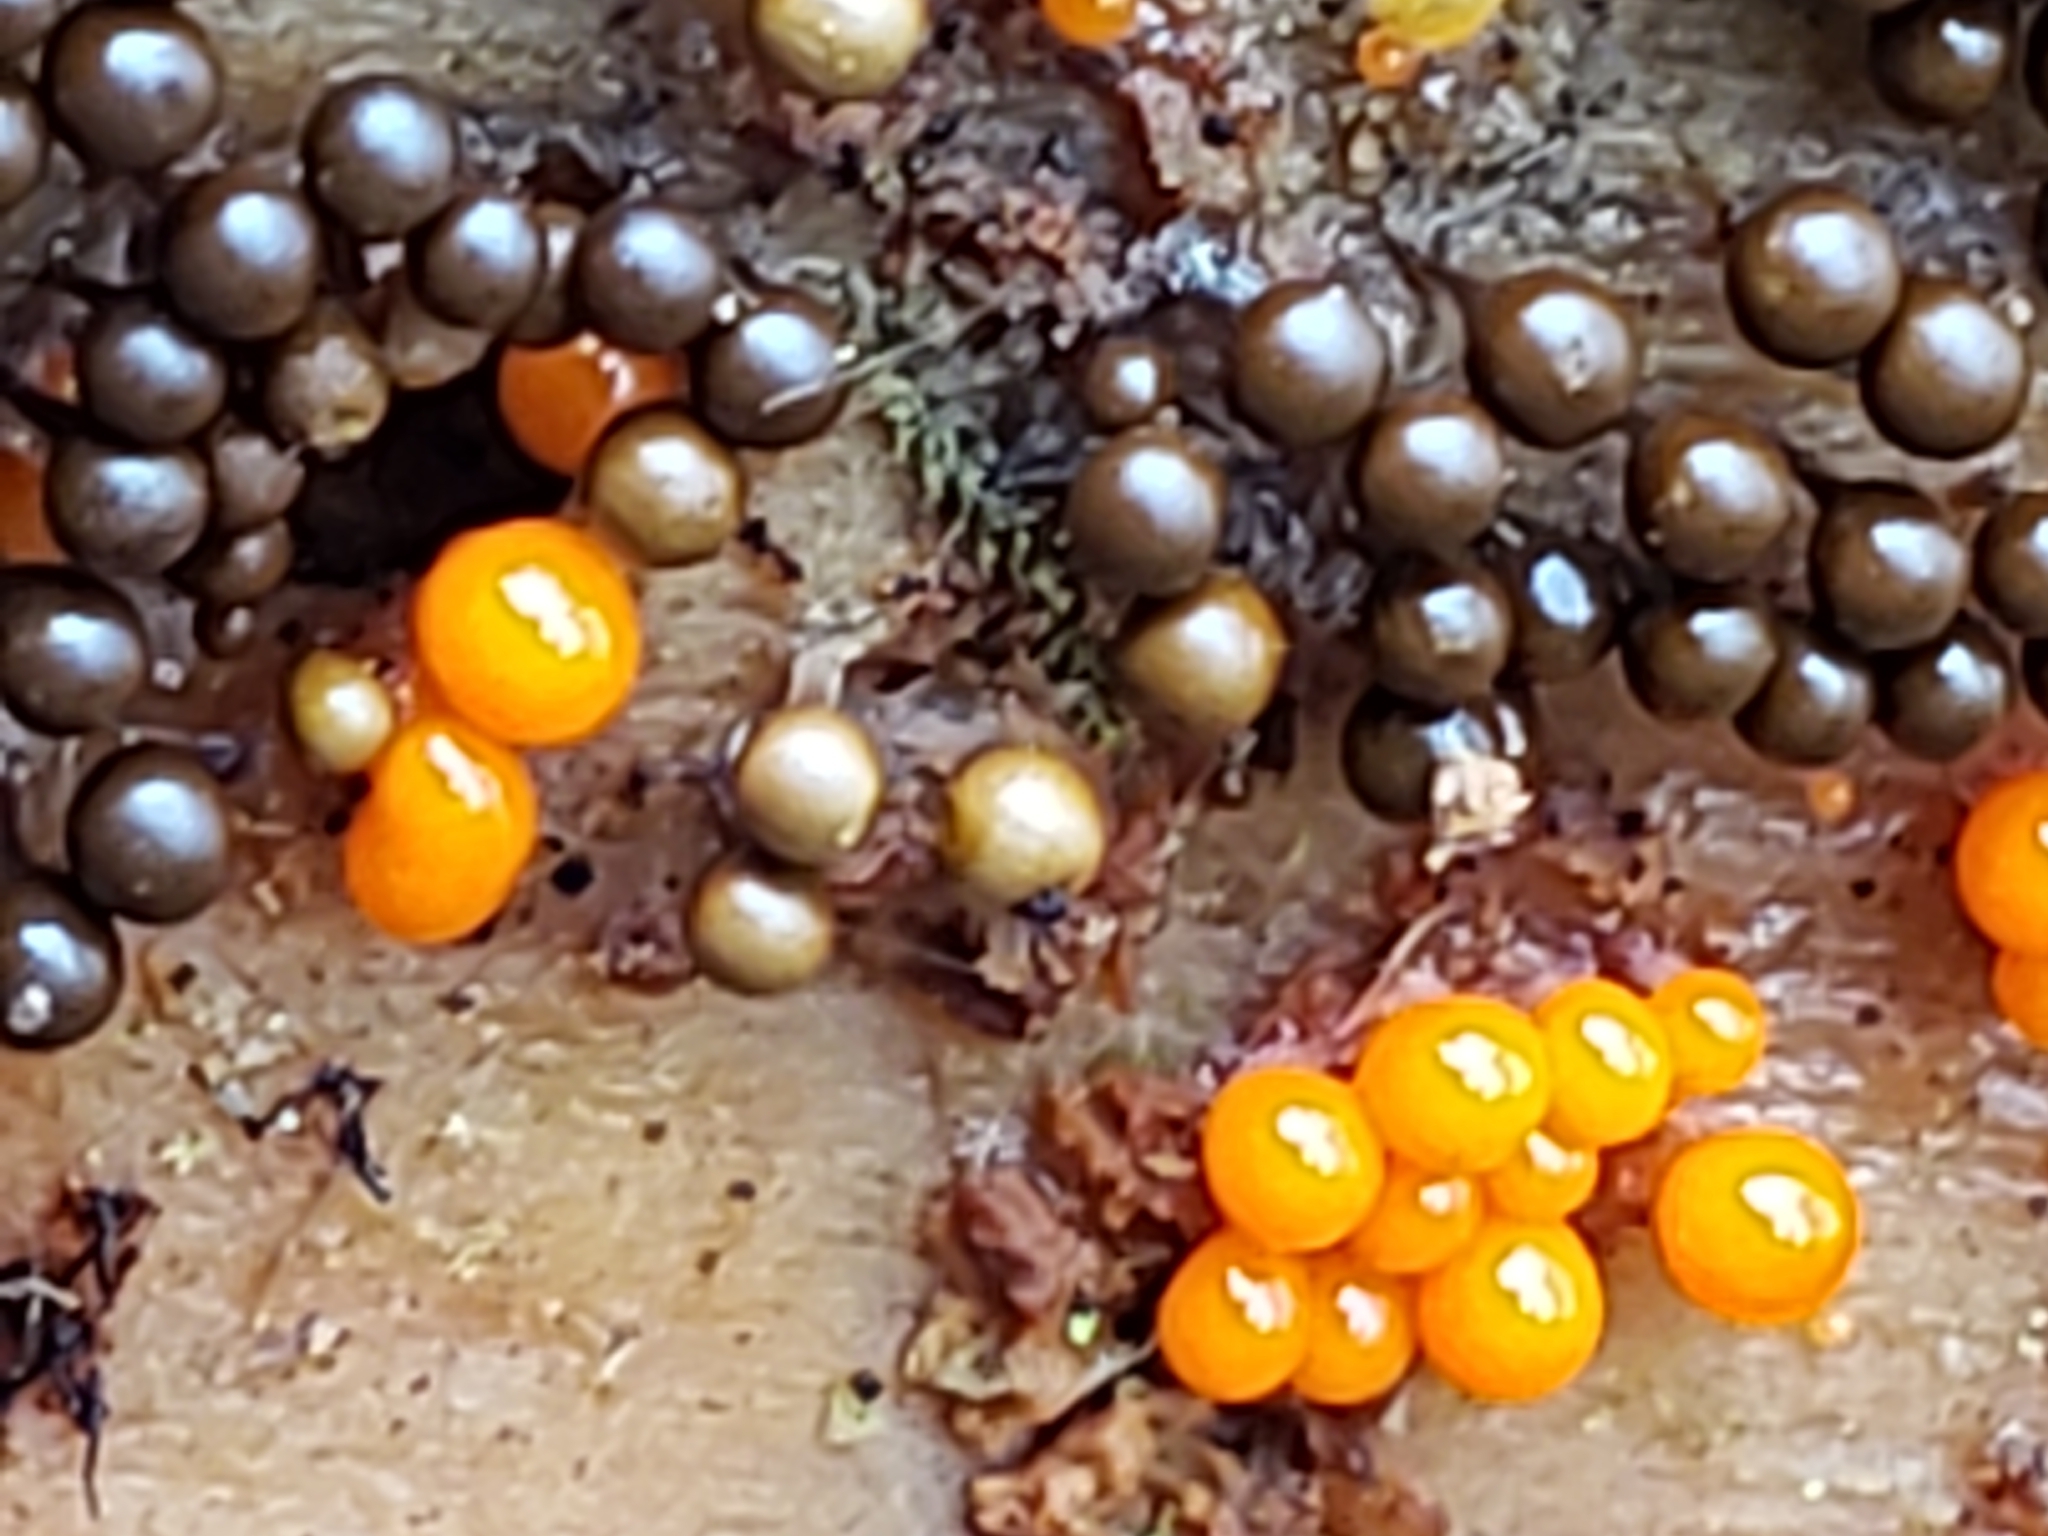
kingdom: Protozoa
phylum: Mycetozoa
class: Myxomycetes
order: Trichiales
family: Arcyriaceae
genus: Hemitrichia
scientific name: Hemitrichia decipiens
